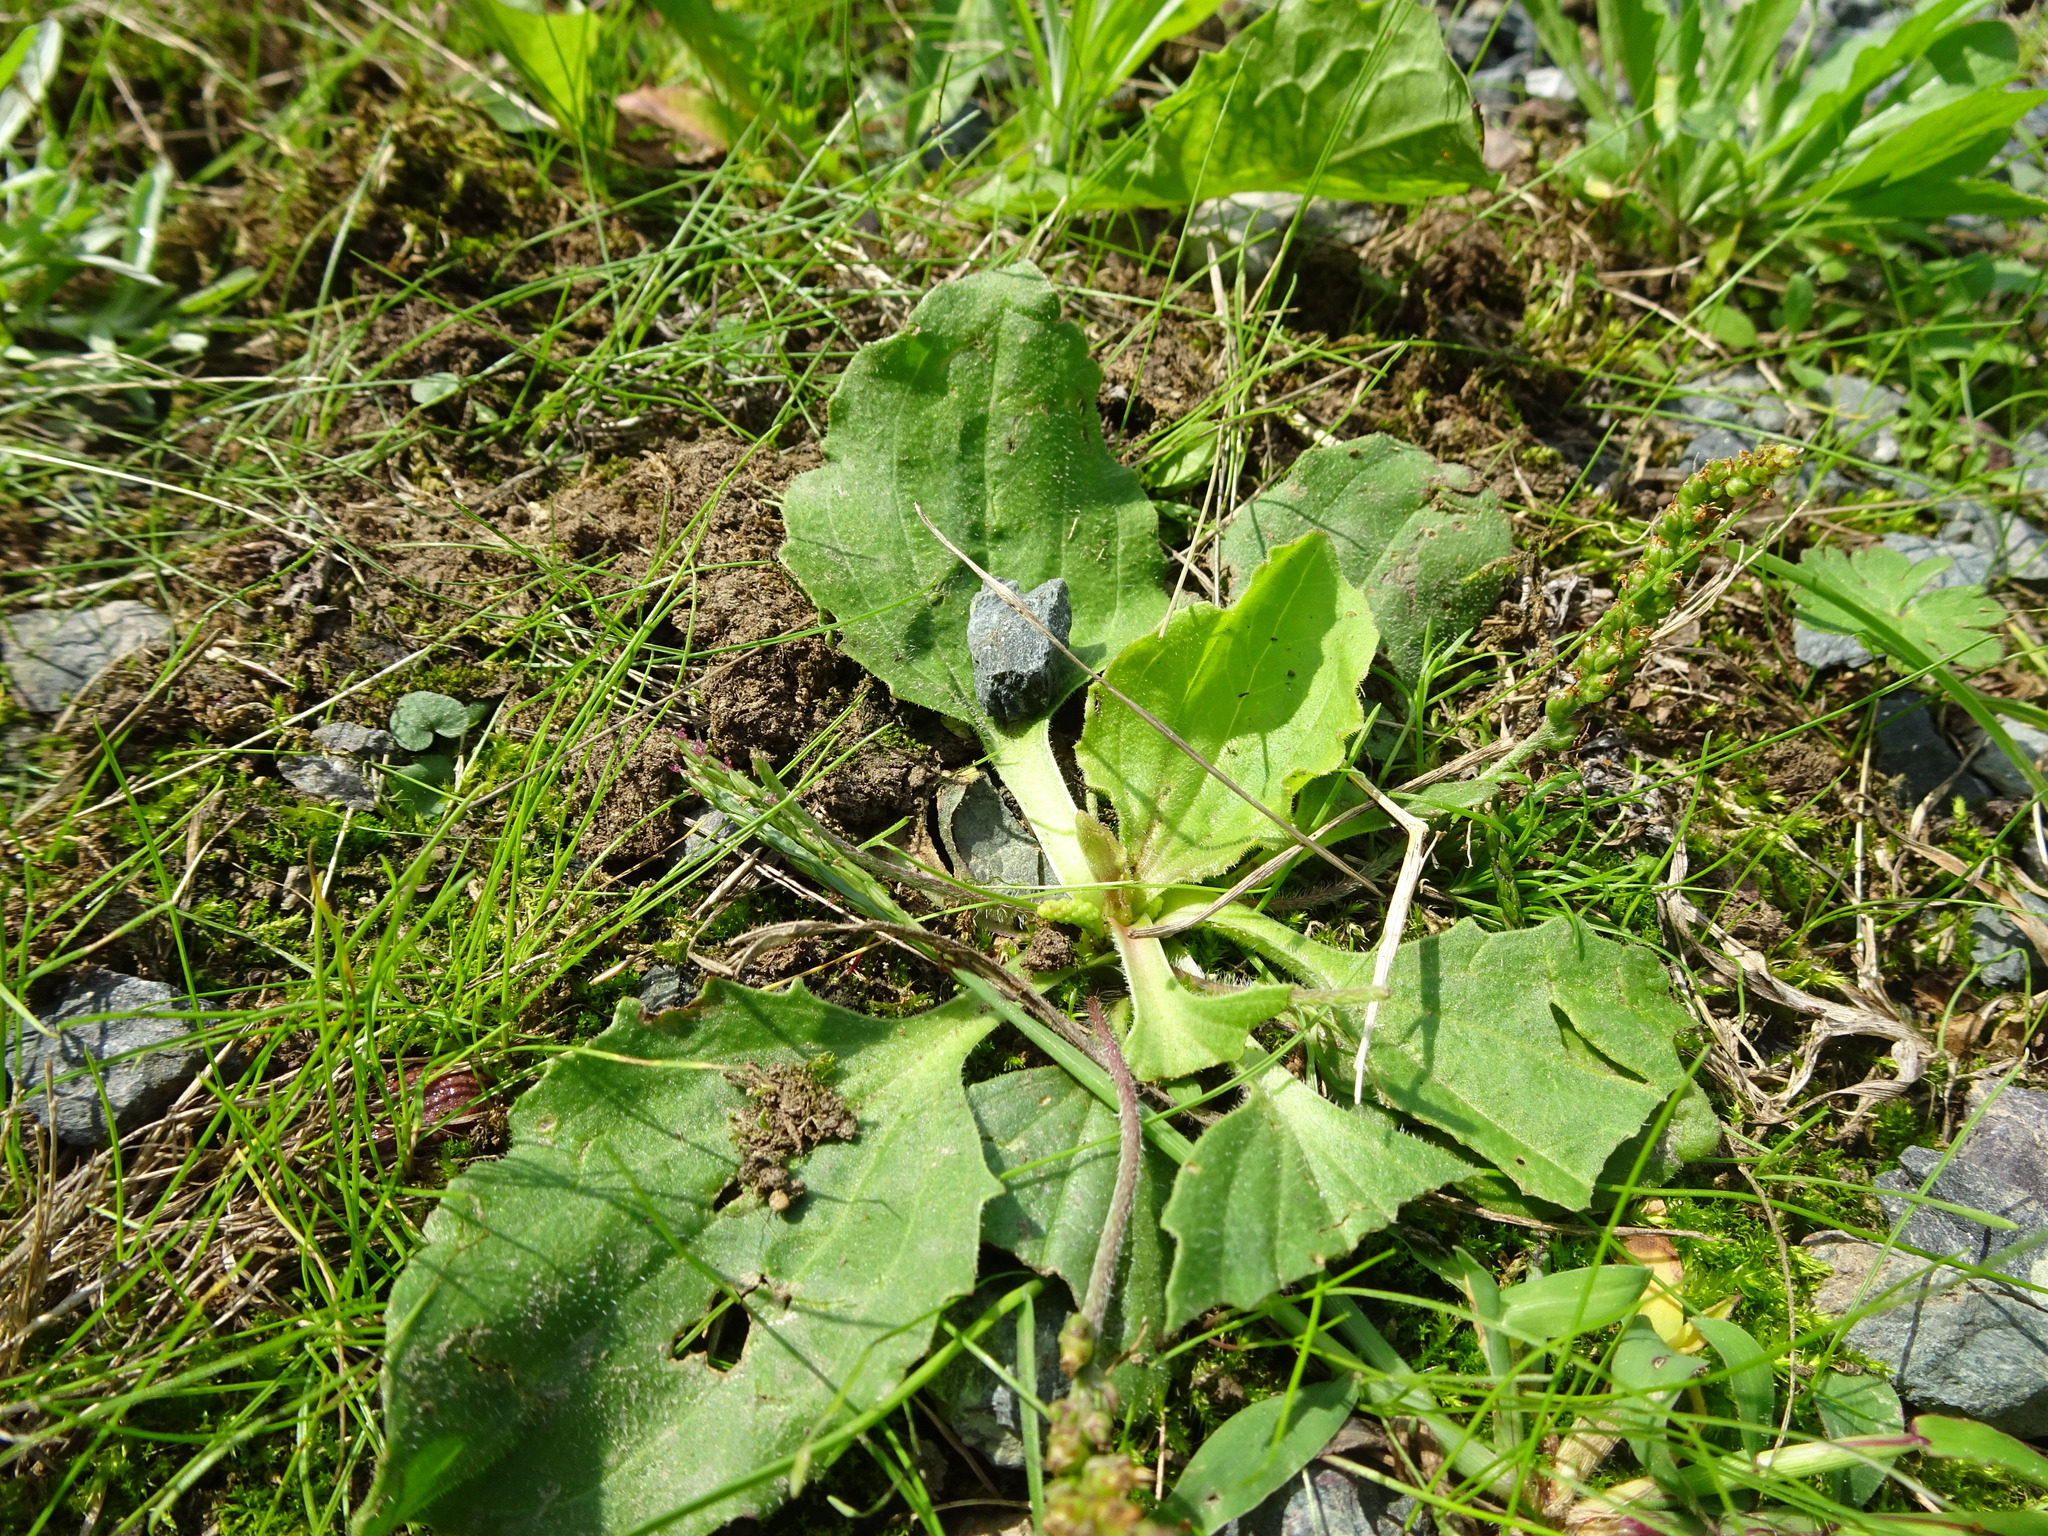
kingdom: Plantae
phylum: Tracheophyta
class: Magnoliopsida
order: Lamiales
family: Plantaginaceae
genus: Plantago
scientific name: Plantago major
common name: Common plantain
